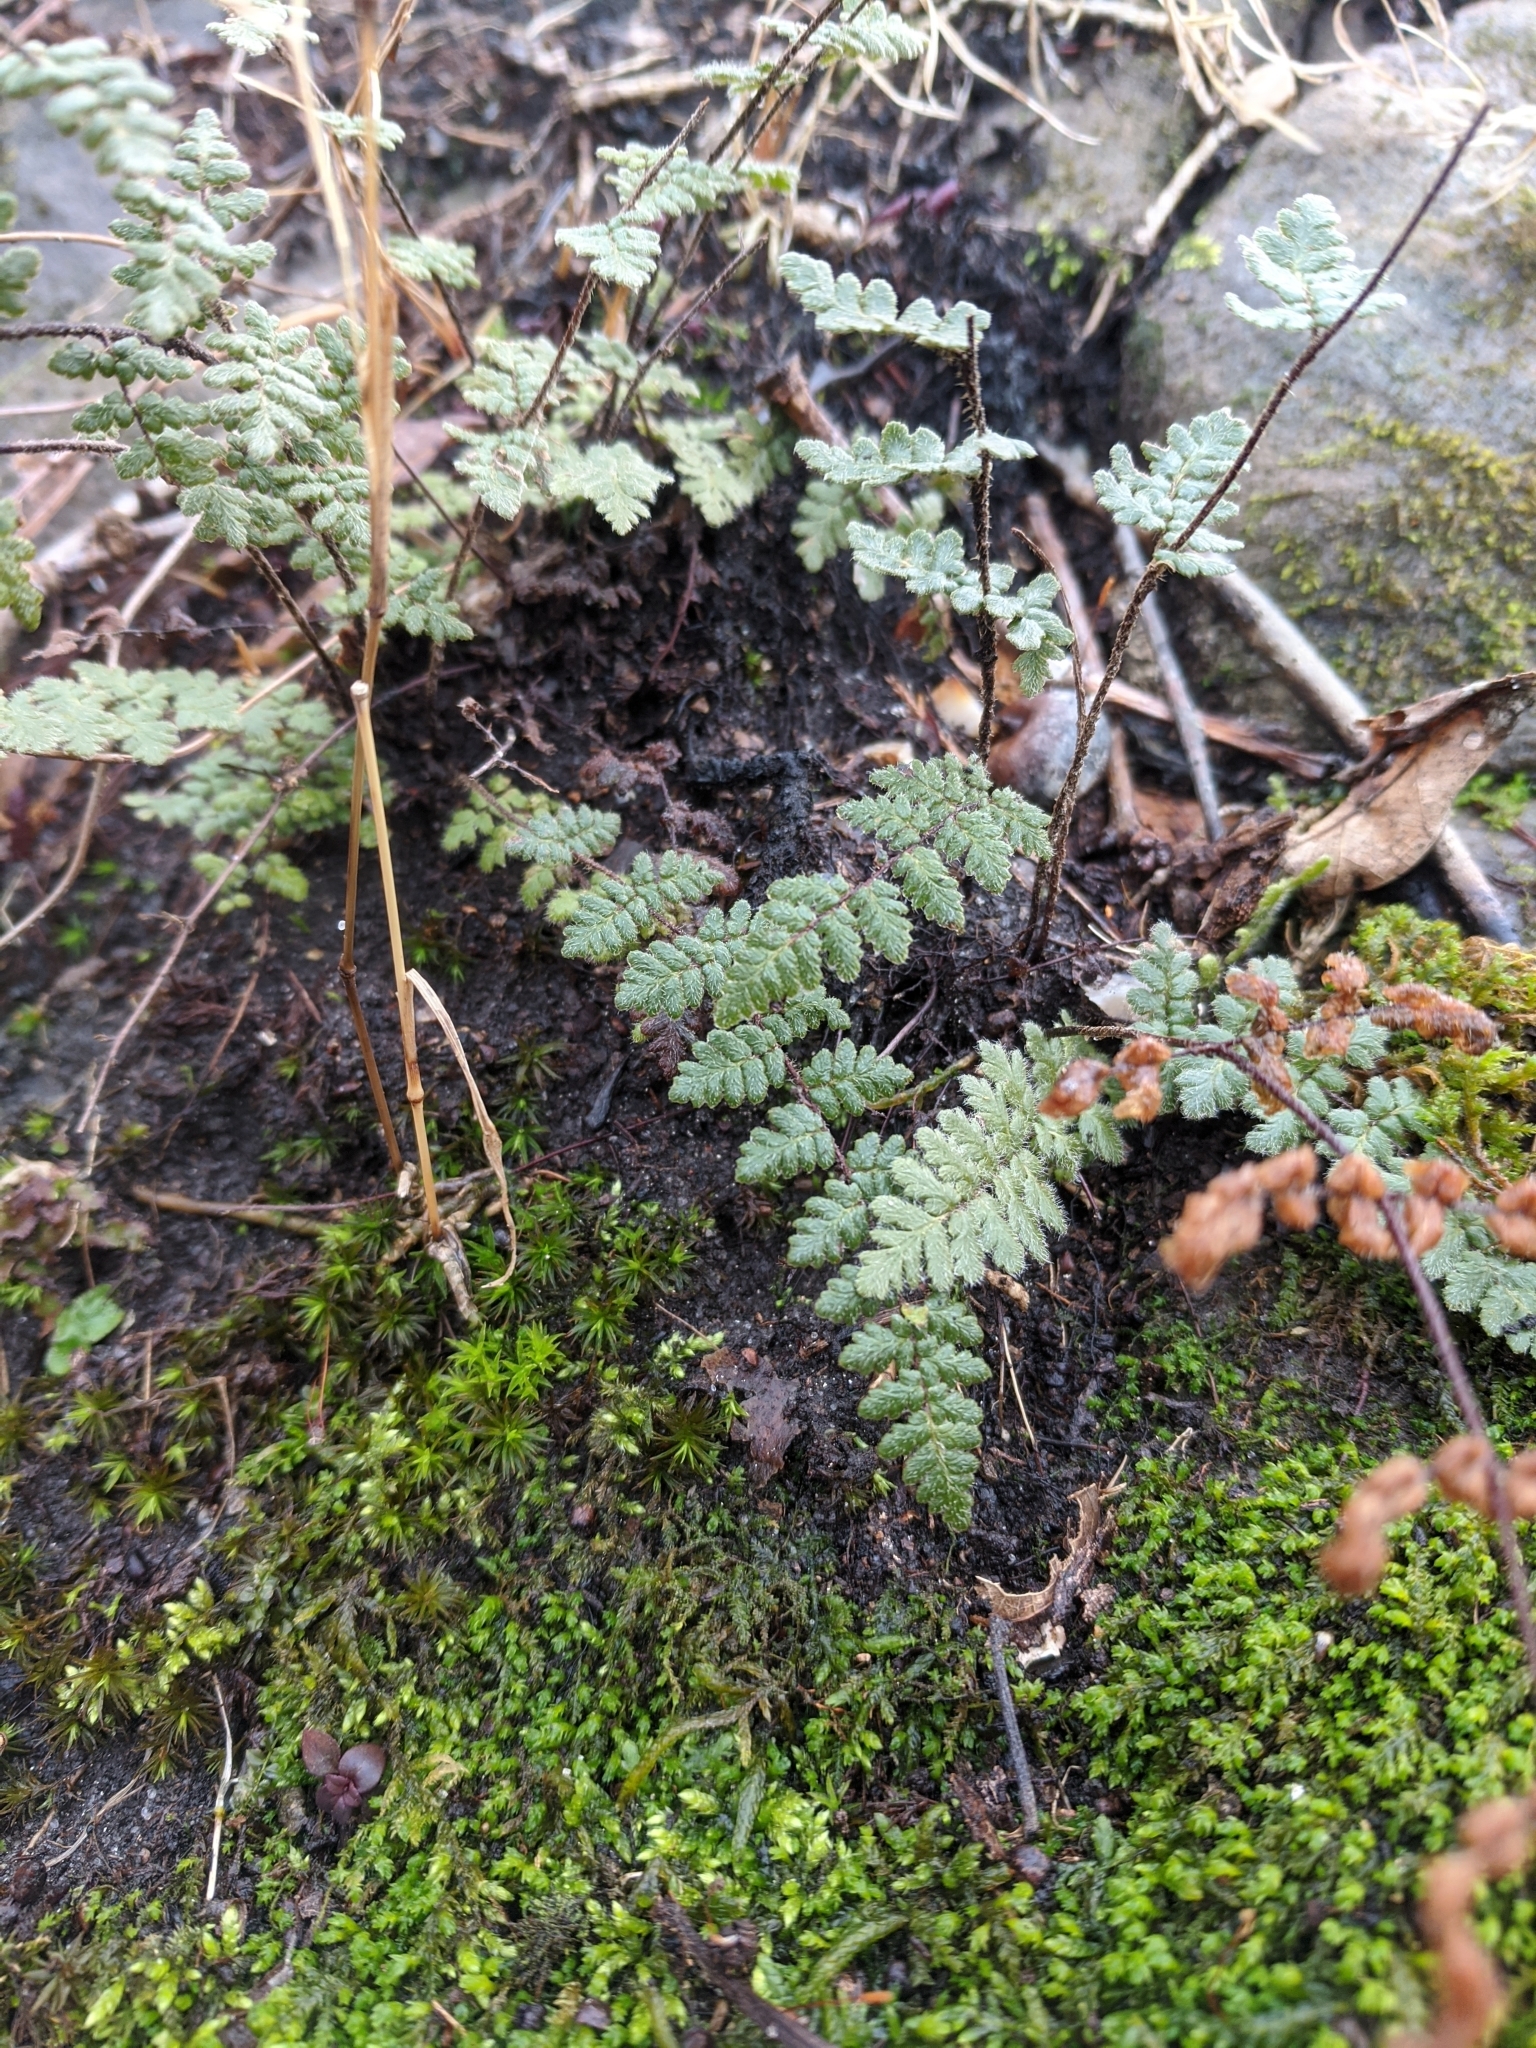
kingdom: Plantae
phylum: Tracheophyta
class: Polypodiopsida
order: Polypodiales
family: Pteridaceae
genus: Myriopteris
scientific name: Myriopteris lanosa
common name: Hairy lip fern
